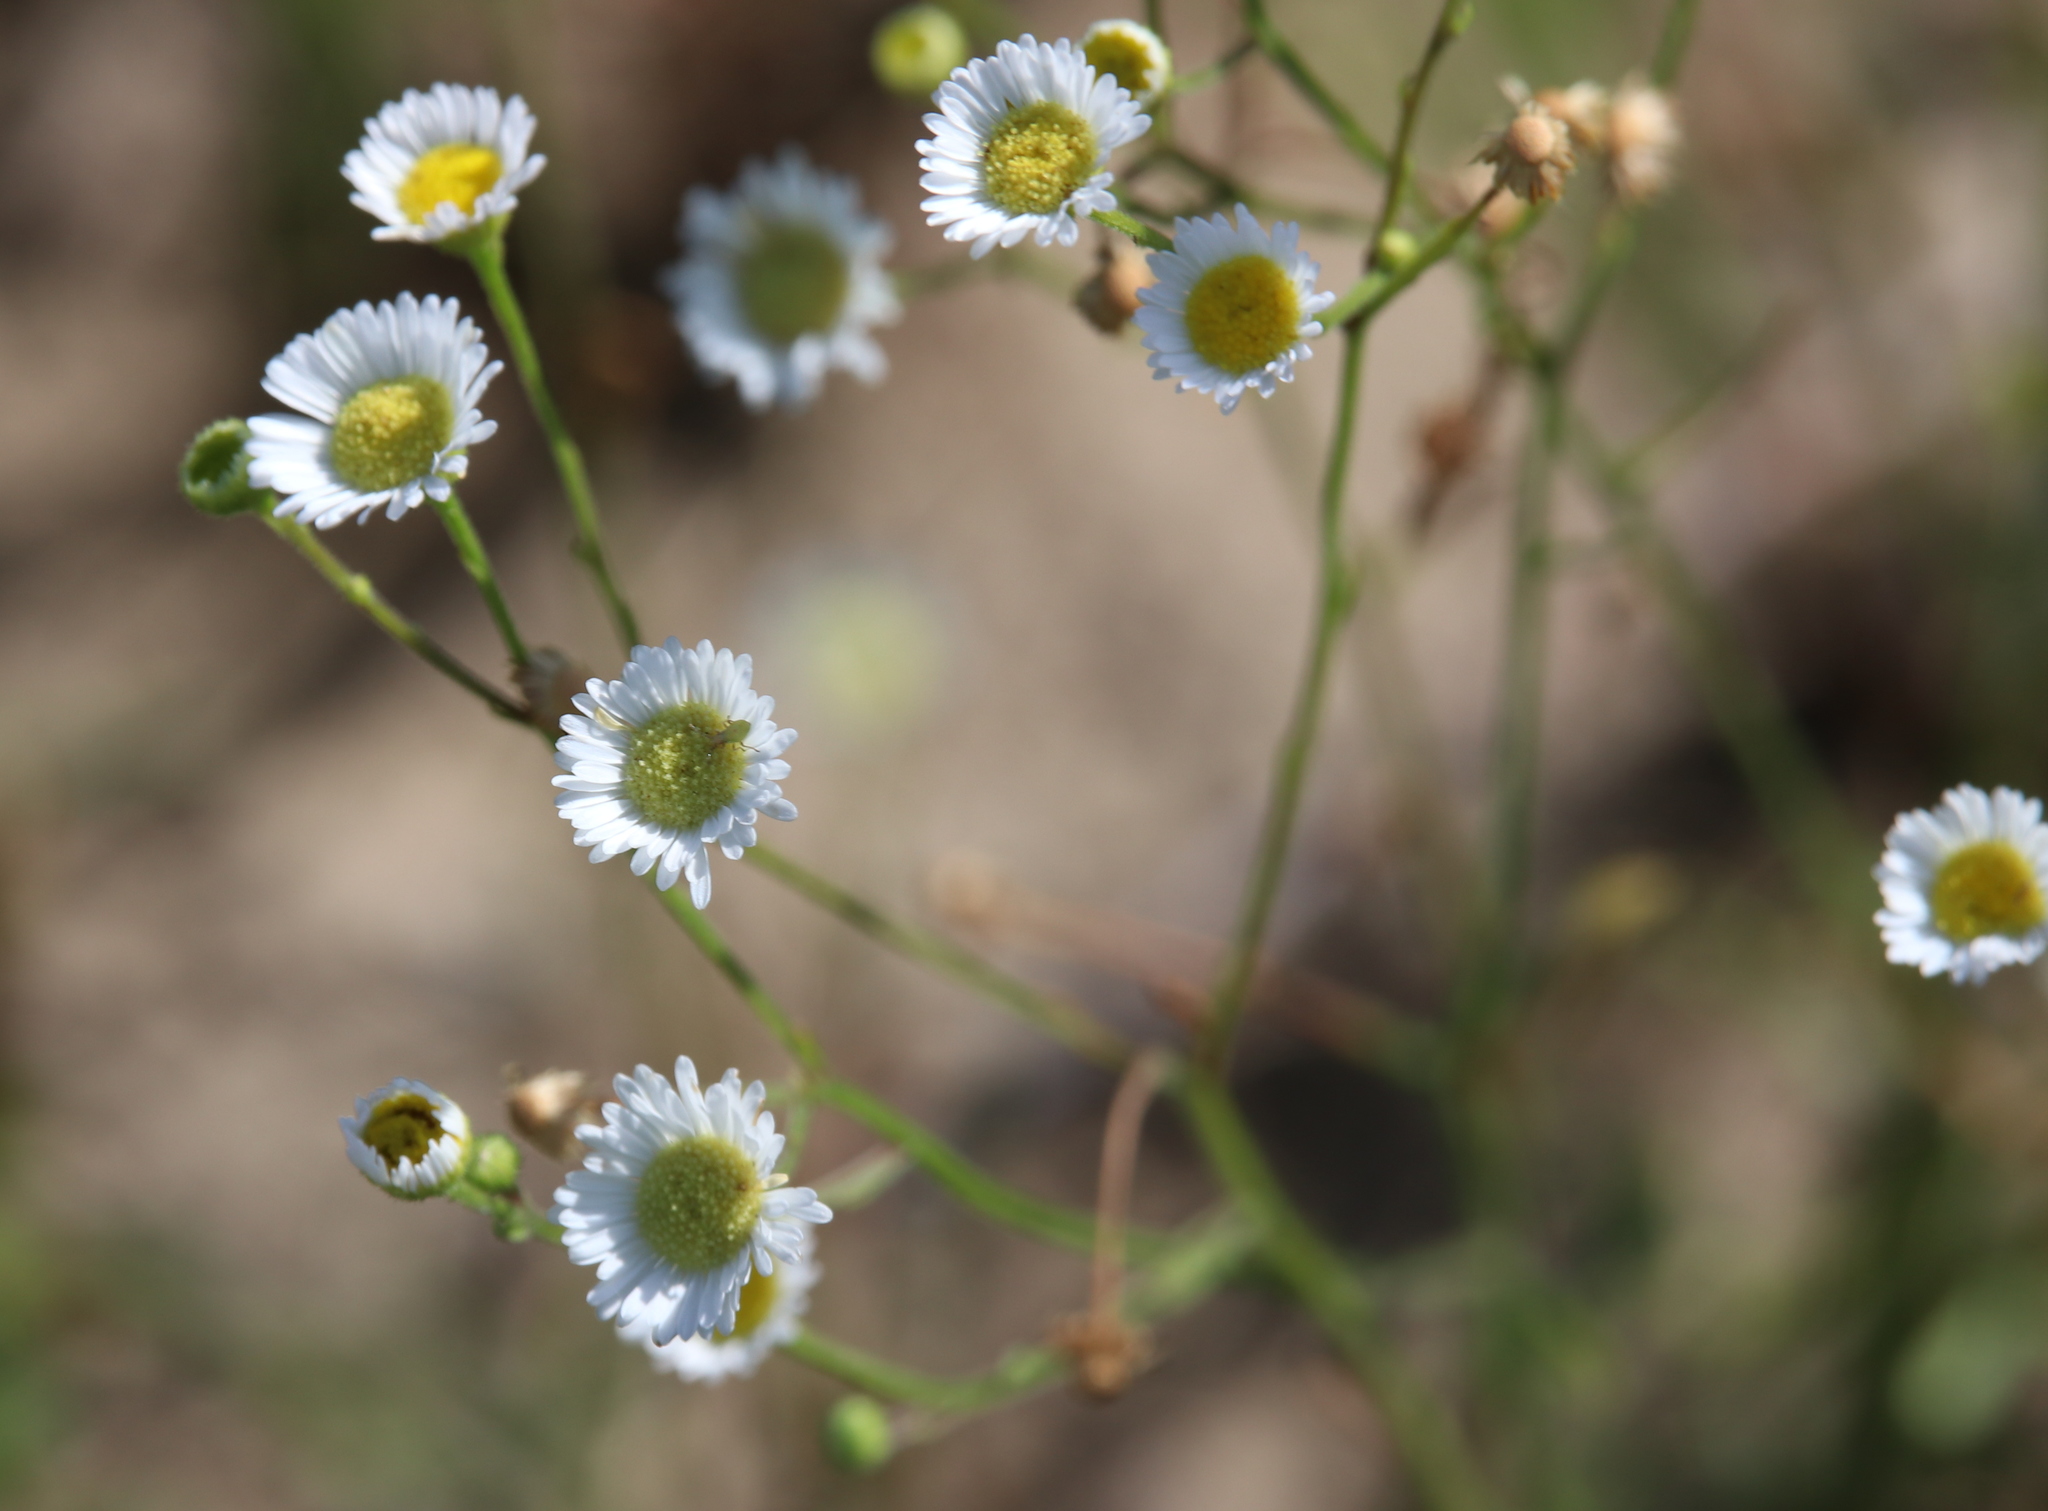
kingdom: Plantae
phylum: Tracheophyta
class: Magnoliopsida
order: Asterales
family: Asteraceae
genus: Erigeron
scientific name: Erigeron strigosus
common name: Common eastern fleabane
